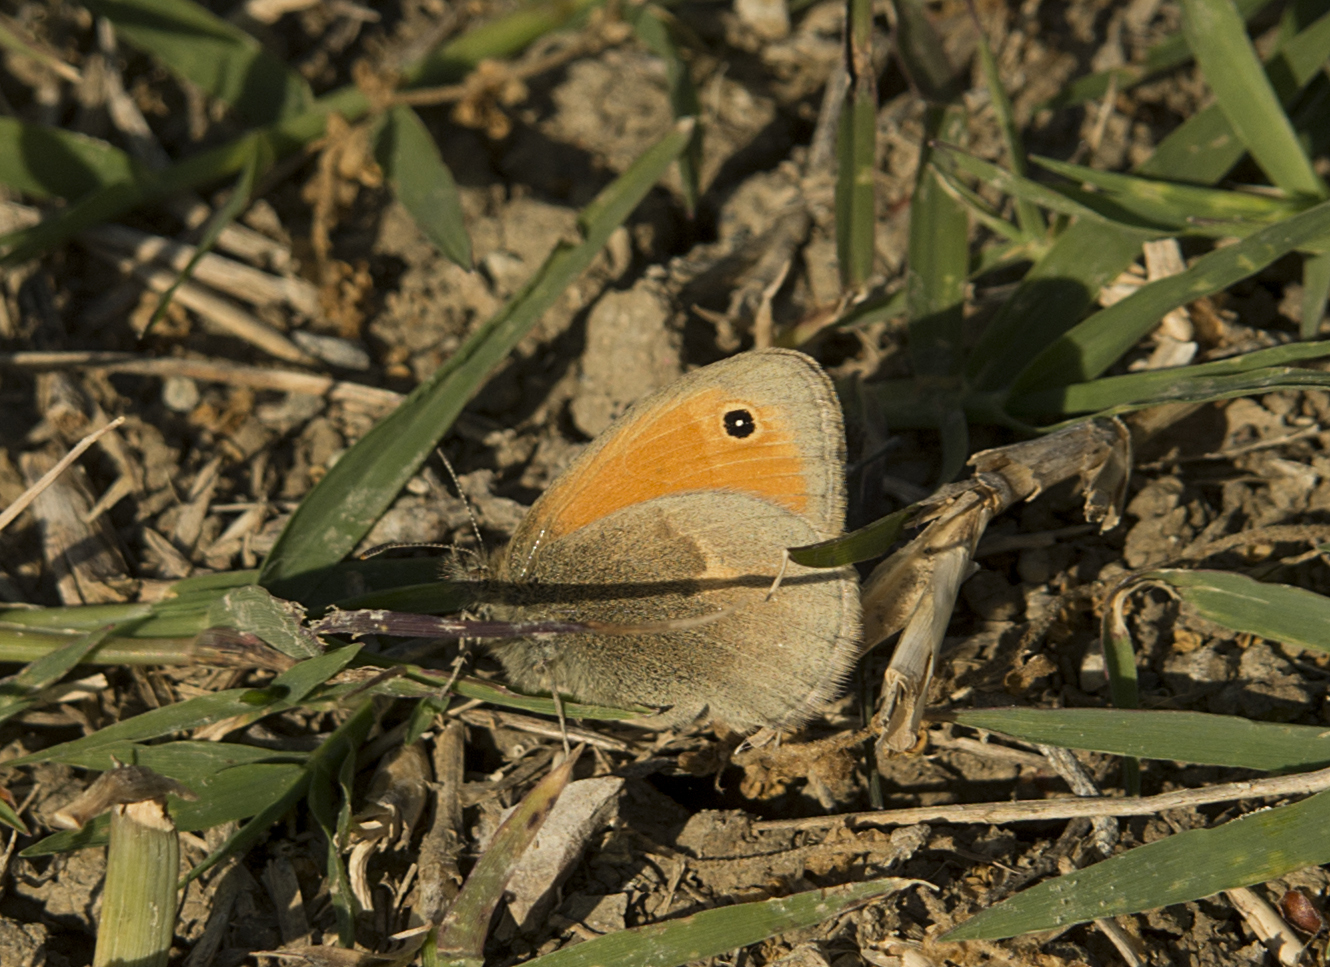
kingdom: Animalia
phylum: Arthropoda
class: Insecta
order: Lepidoptera
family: Nymphalidae
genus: Coenonympha
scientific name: Coenonympha pamphilus
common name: Small heath
